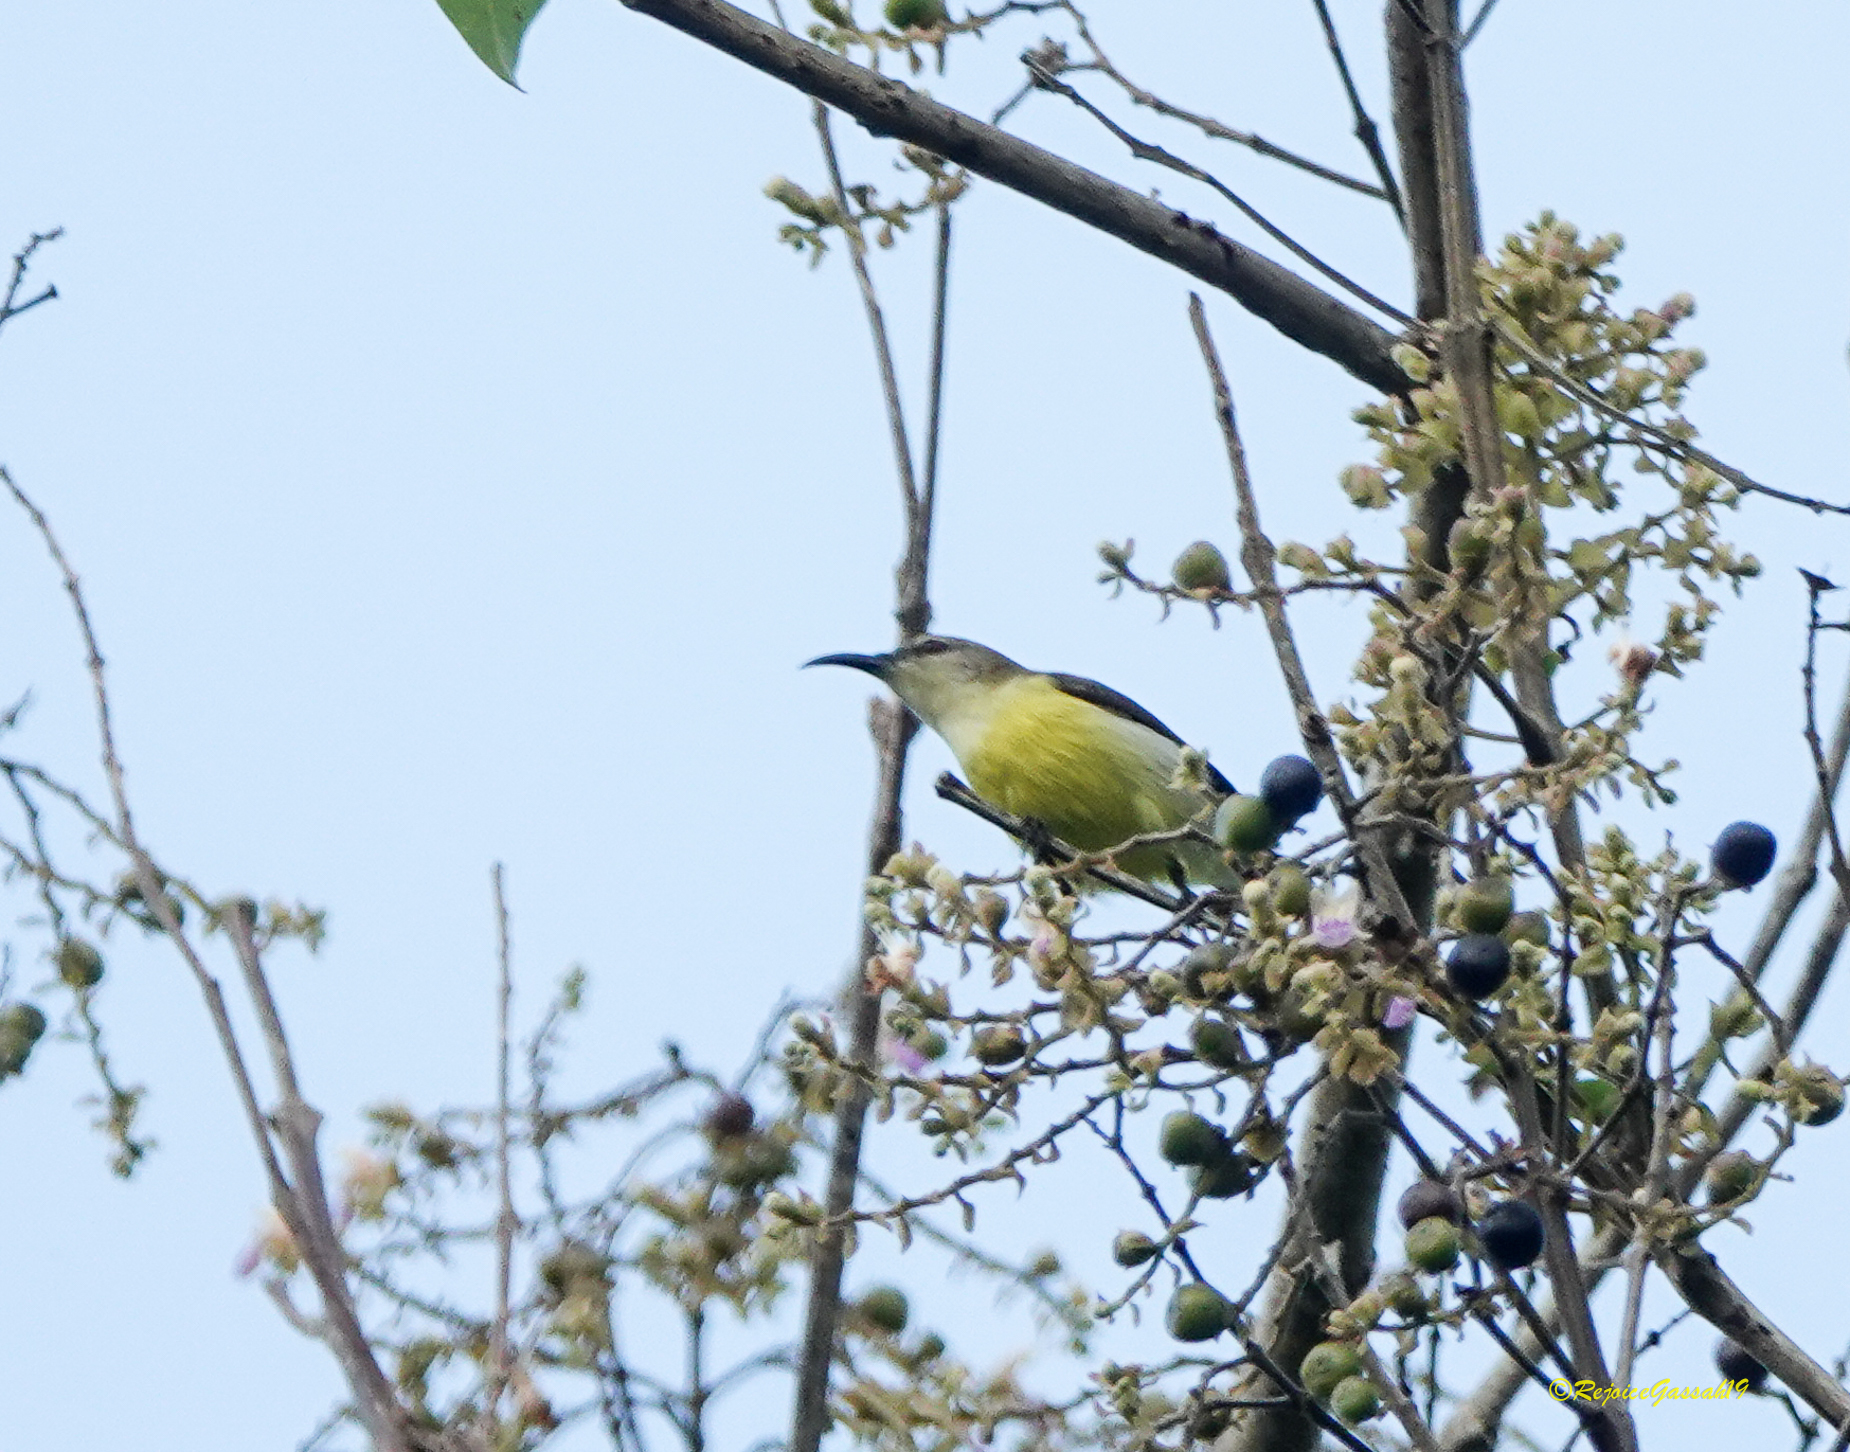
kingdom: Animalia
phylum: Chordata
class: Aves
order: Passeriformes
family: Nectariniidae
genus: Leptocoma
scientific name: Leptocoma zeylonica
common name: Purple-rumped sunbird
